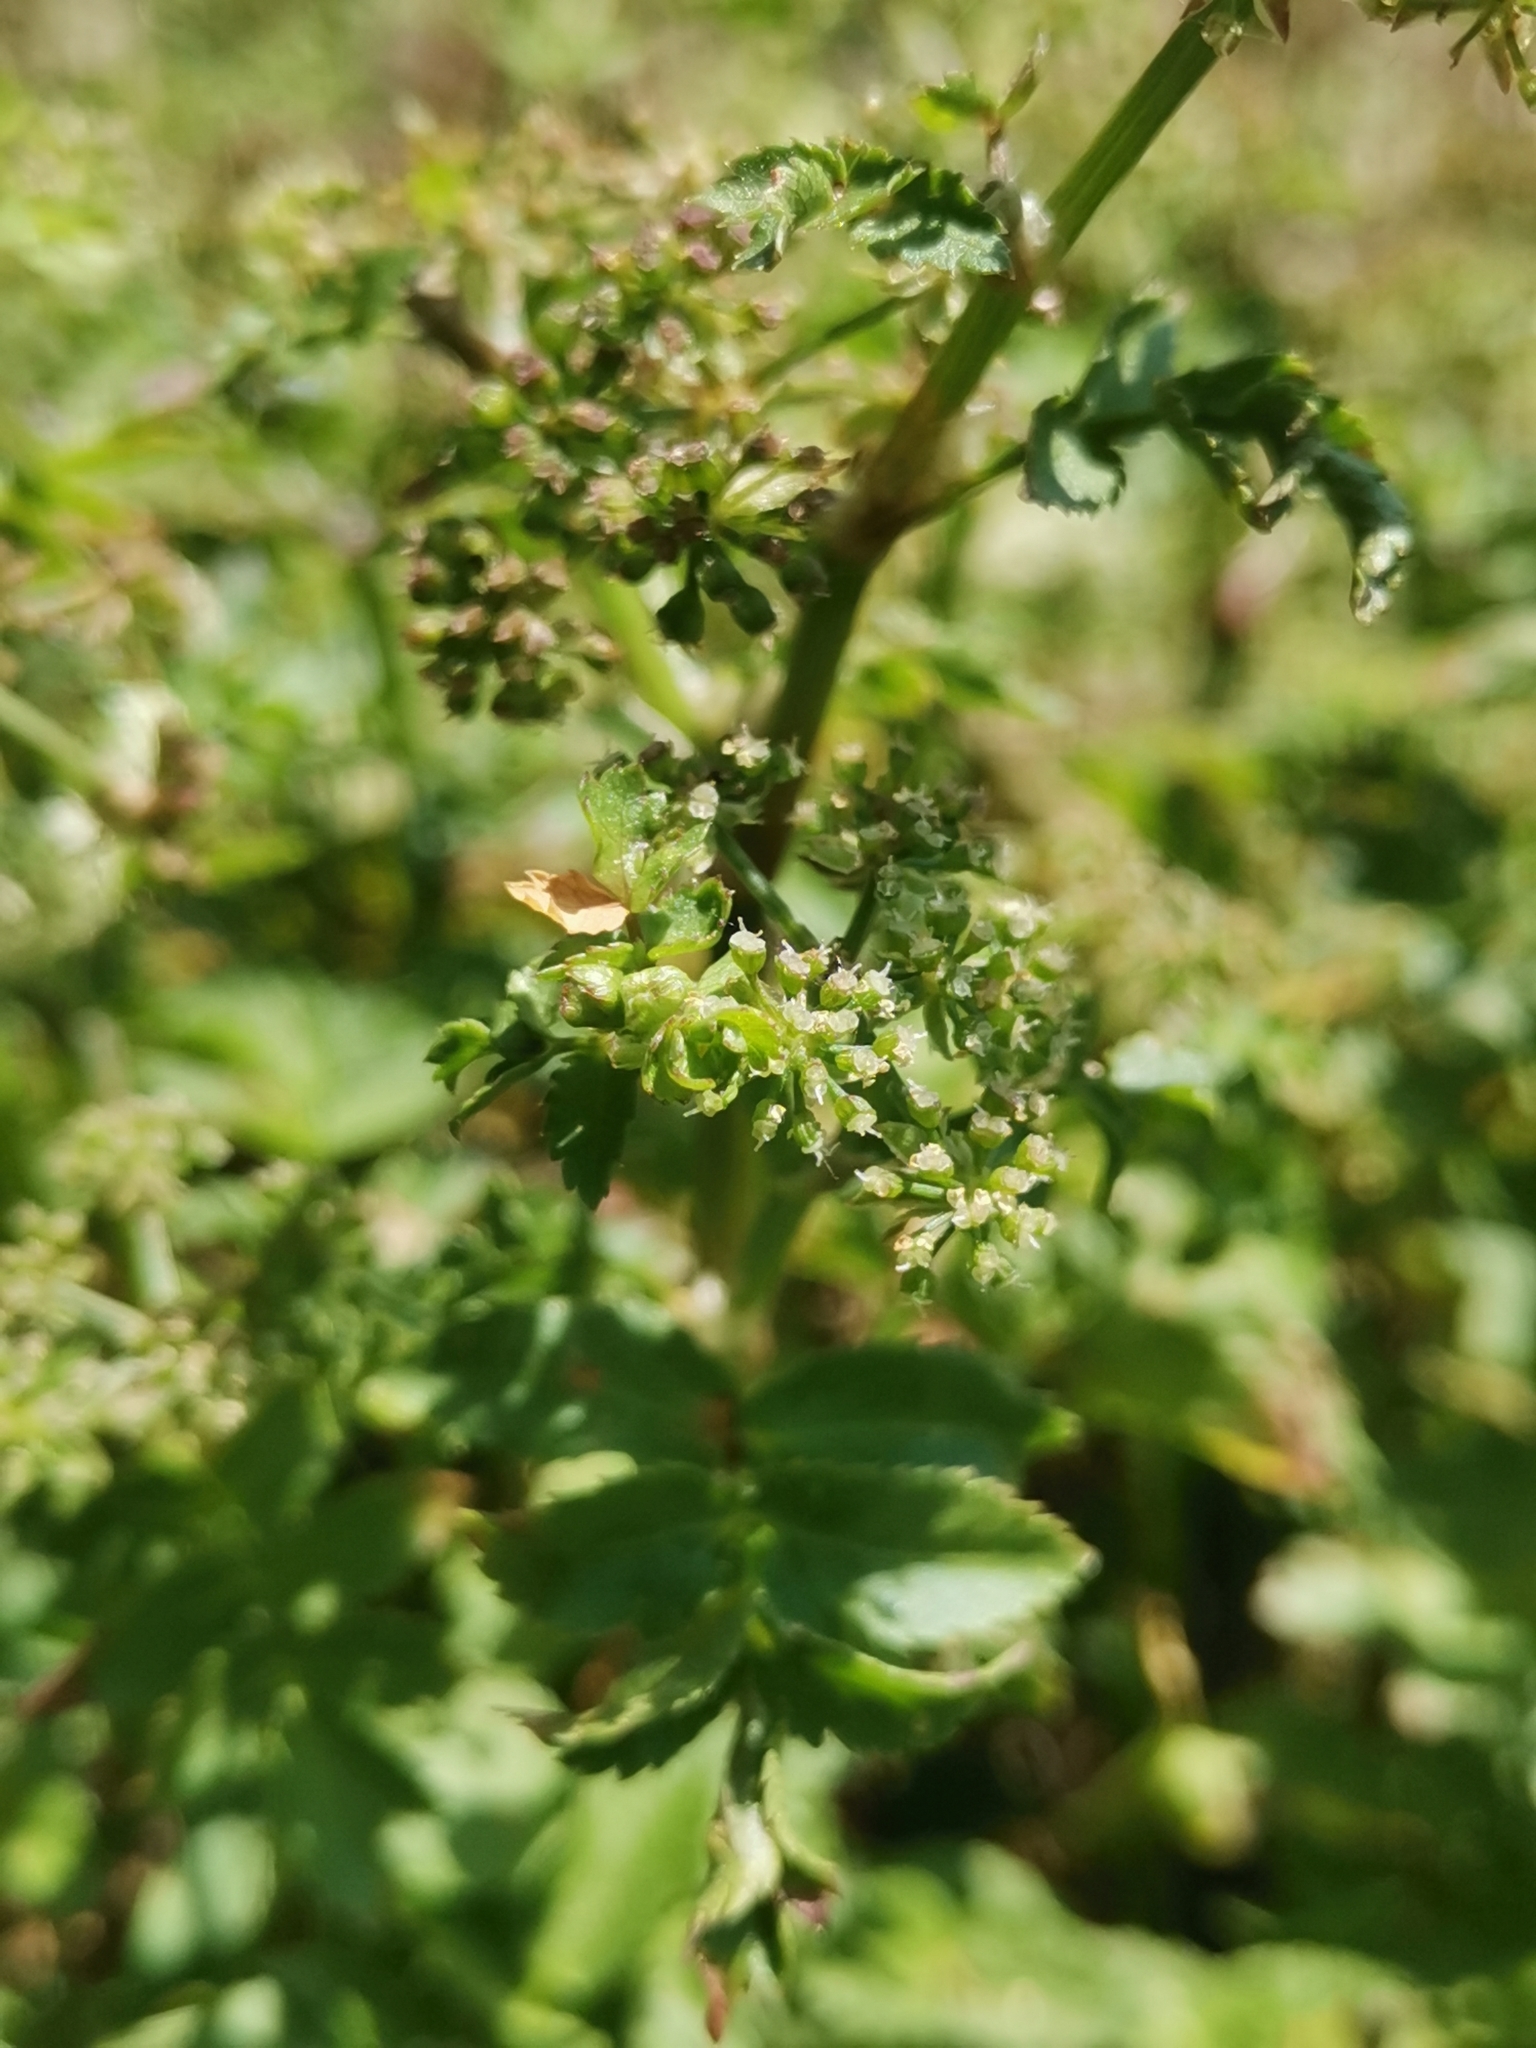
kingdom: Plantae
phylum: Tracheophyta
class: Magnoliopsida
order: Apiales
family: Apiaceae
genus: Berula
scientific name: Berula erecta
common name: Lesser water-parsnip
